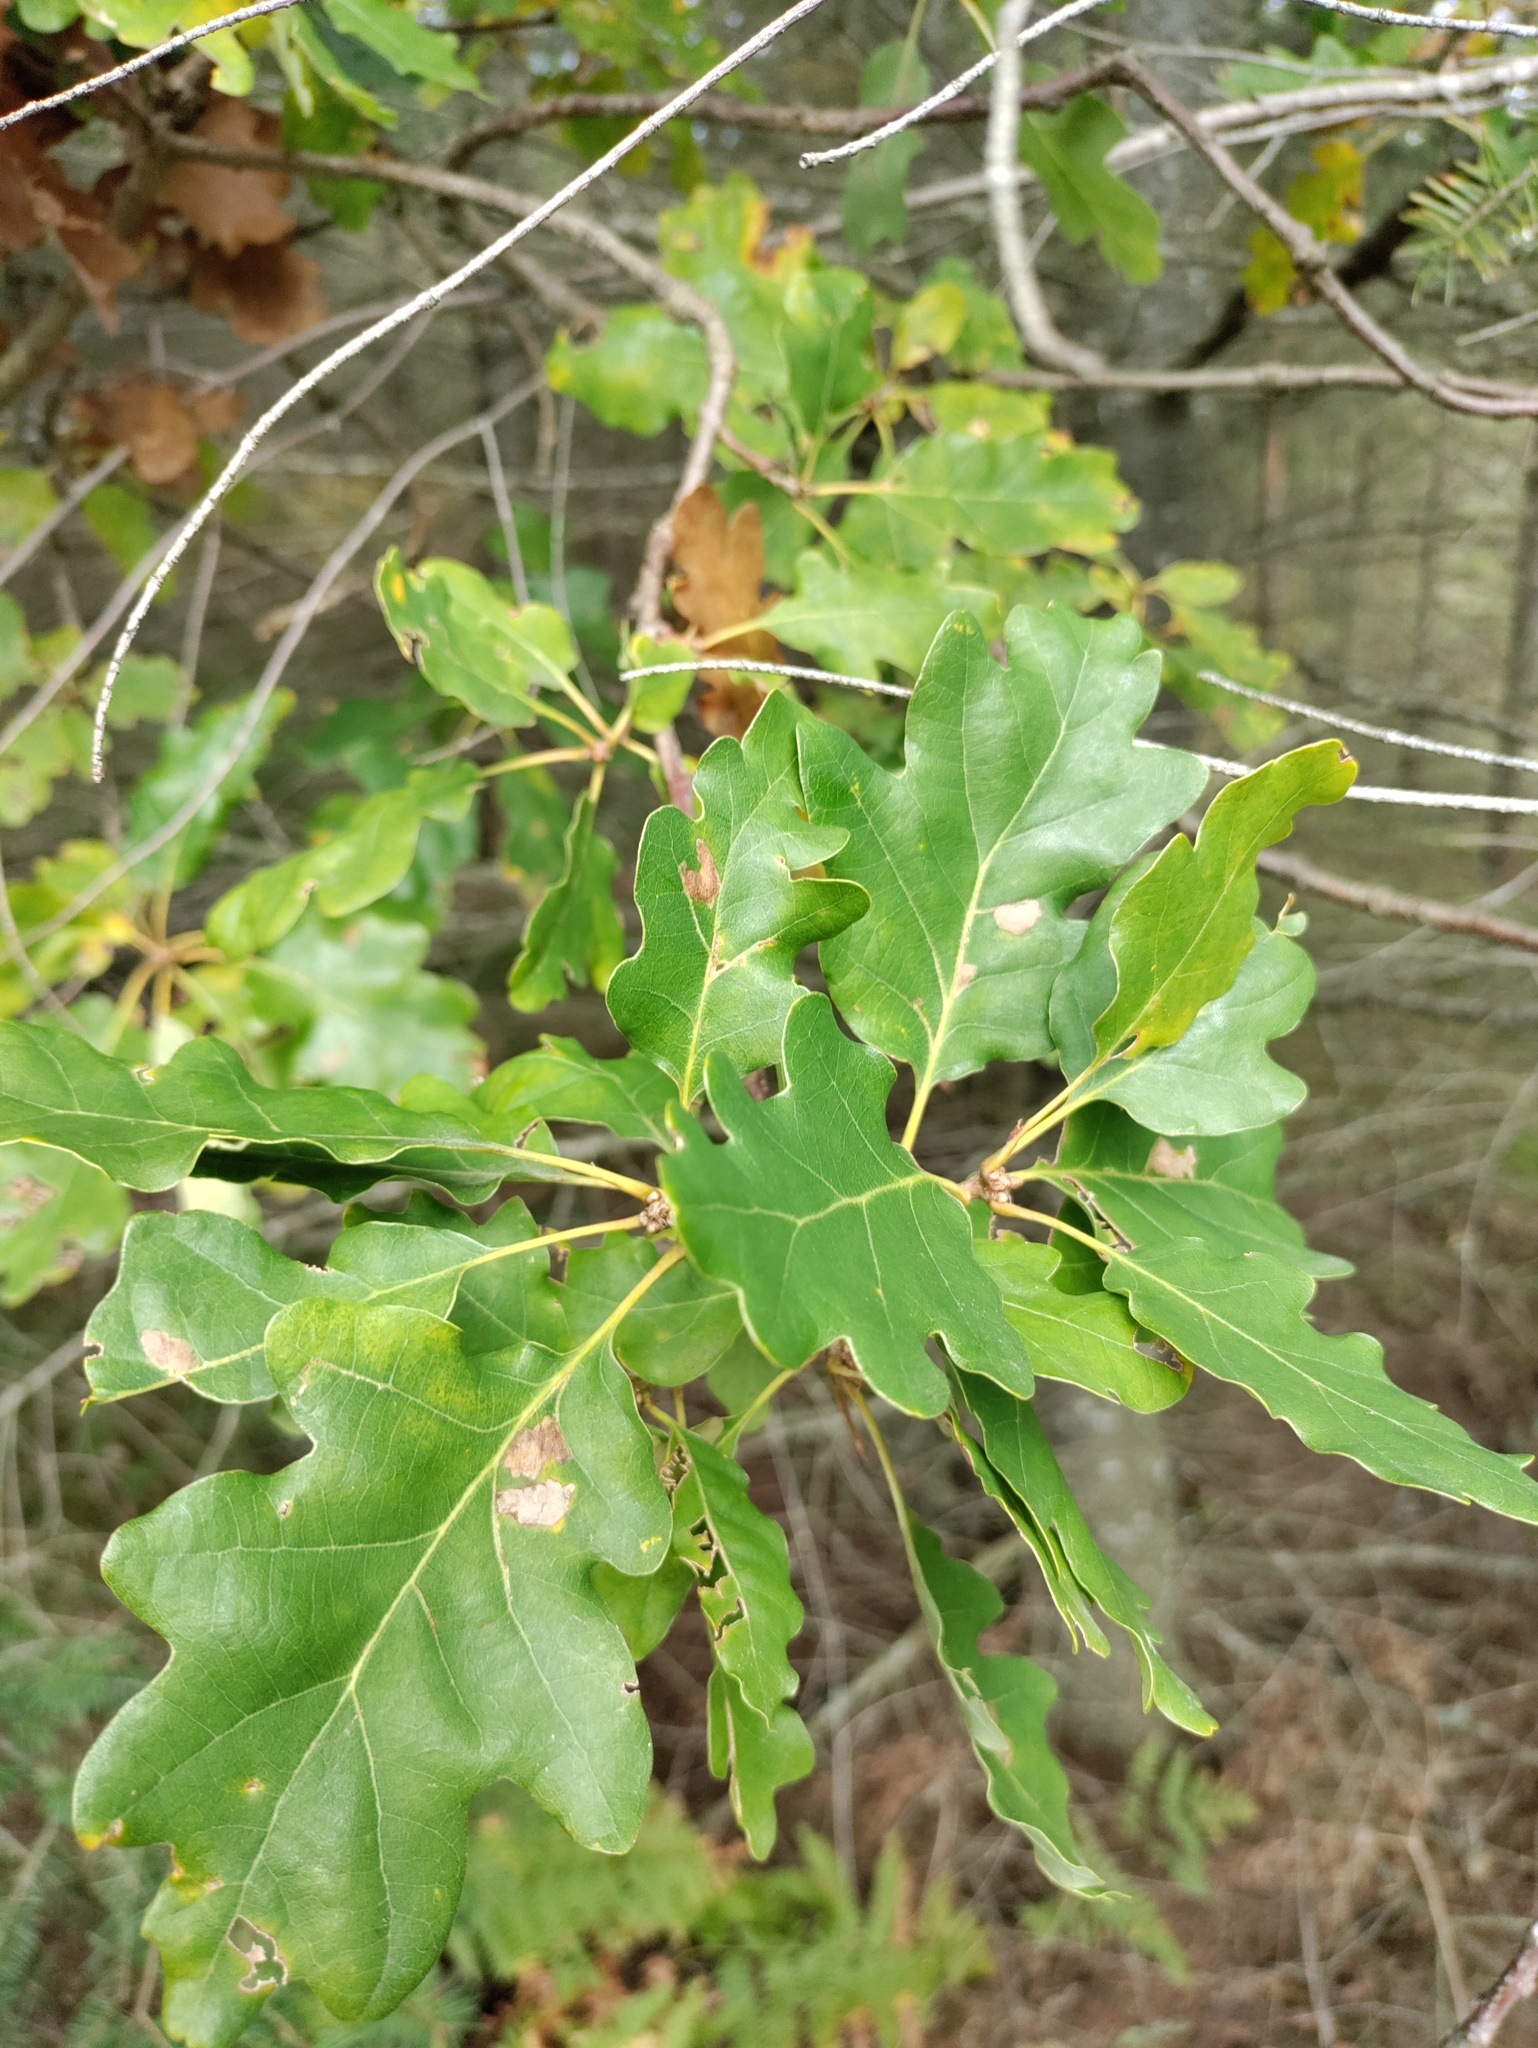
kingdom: Plantae
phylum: Tracheophyta
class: Magnoliopsida
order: Fagales
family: Fagaceae
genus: Quercus
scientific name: Quercus petraea
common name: Sessile oak
